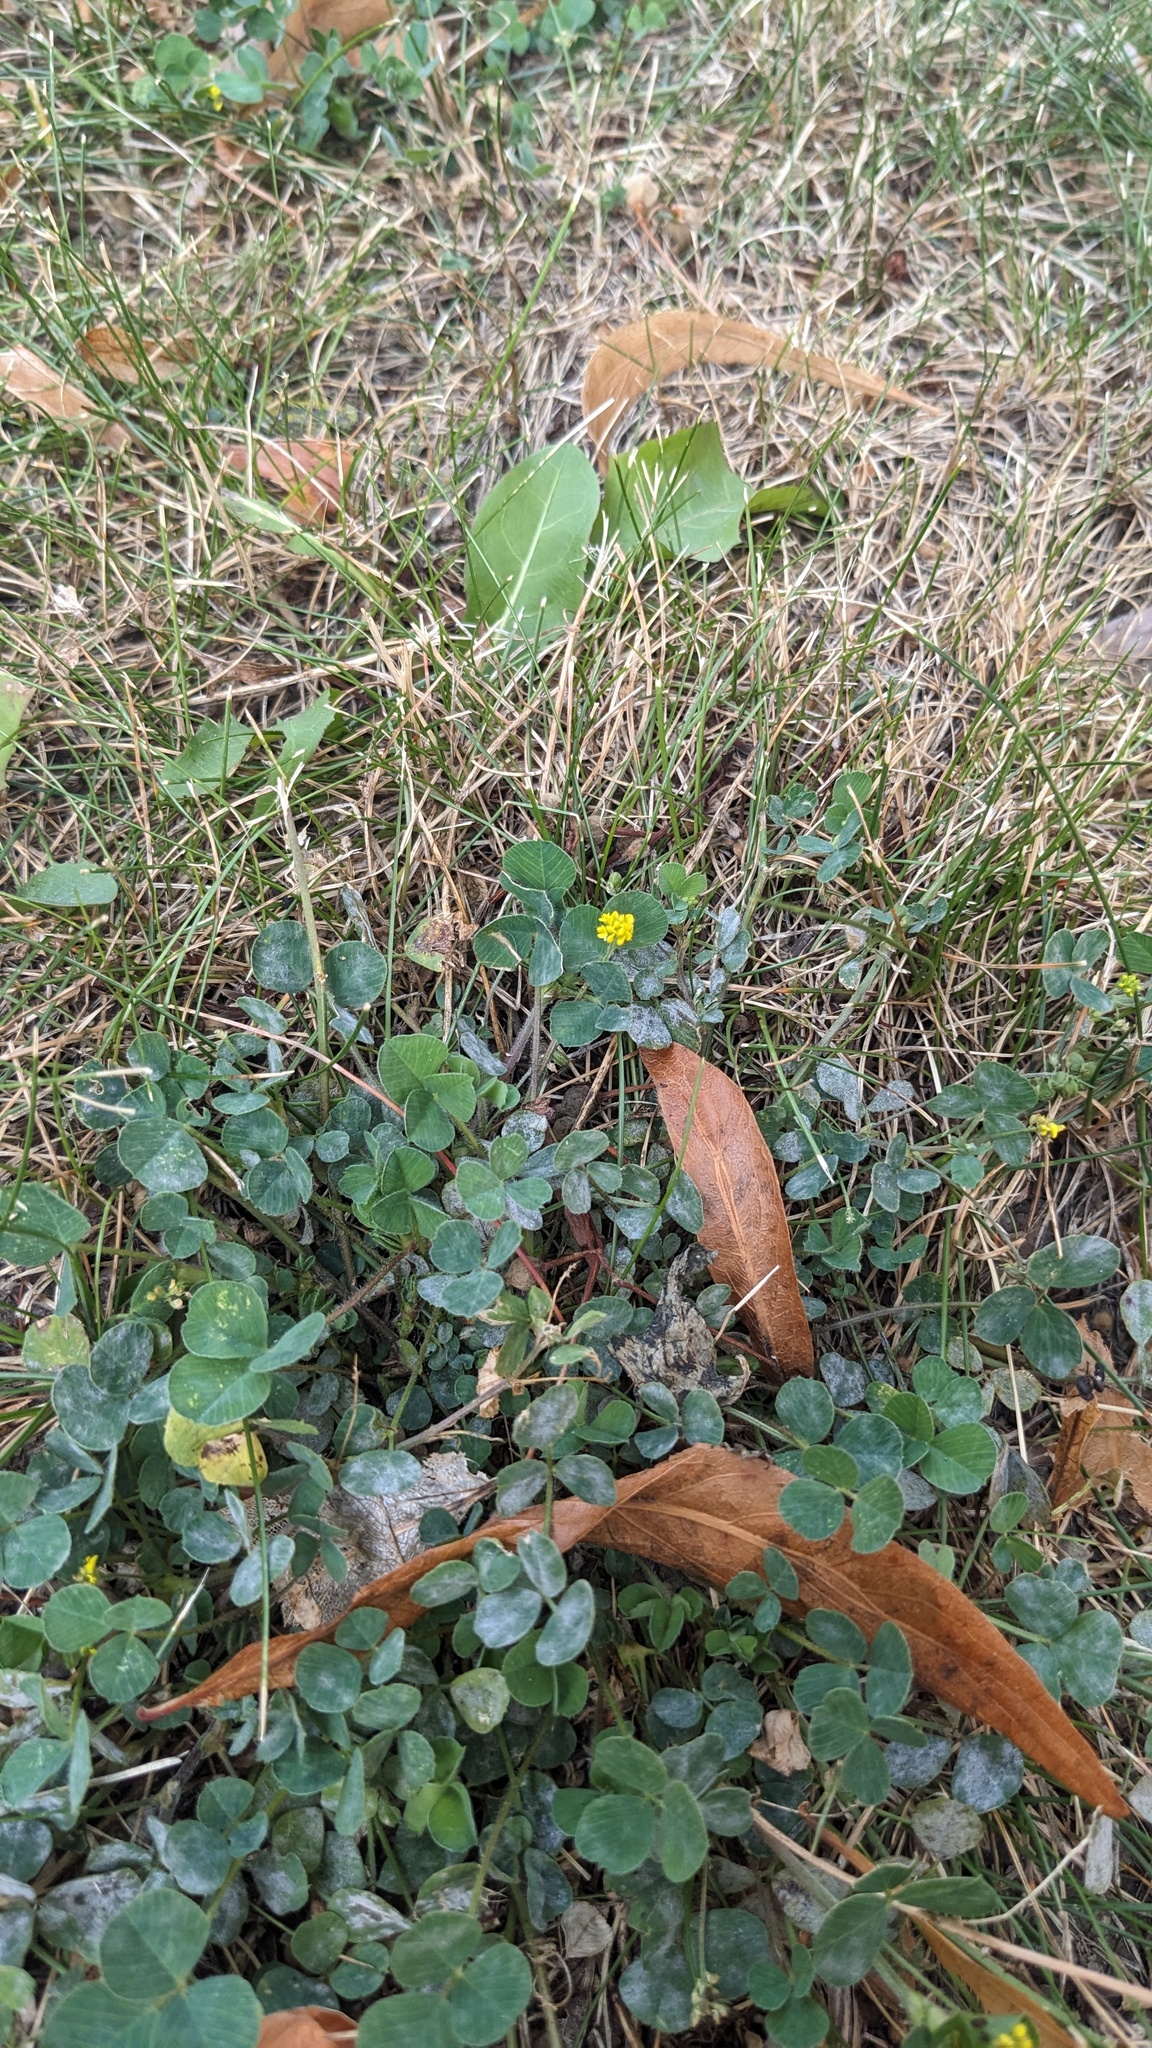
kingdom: Plantae
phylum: Tracheophyta
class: Magnoliopsida
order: Fabales
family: Fabaceae
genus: Medicago
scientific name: Medicago lupulina
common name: Black medick
